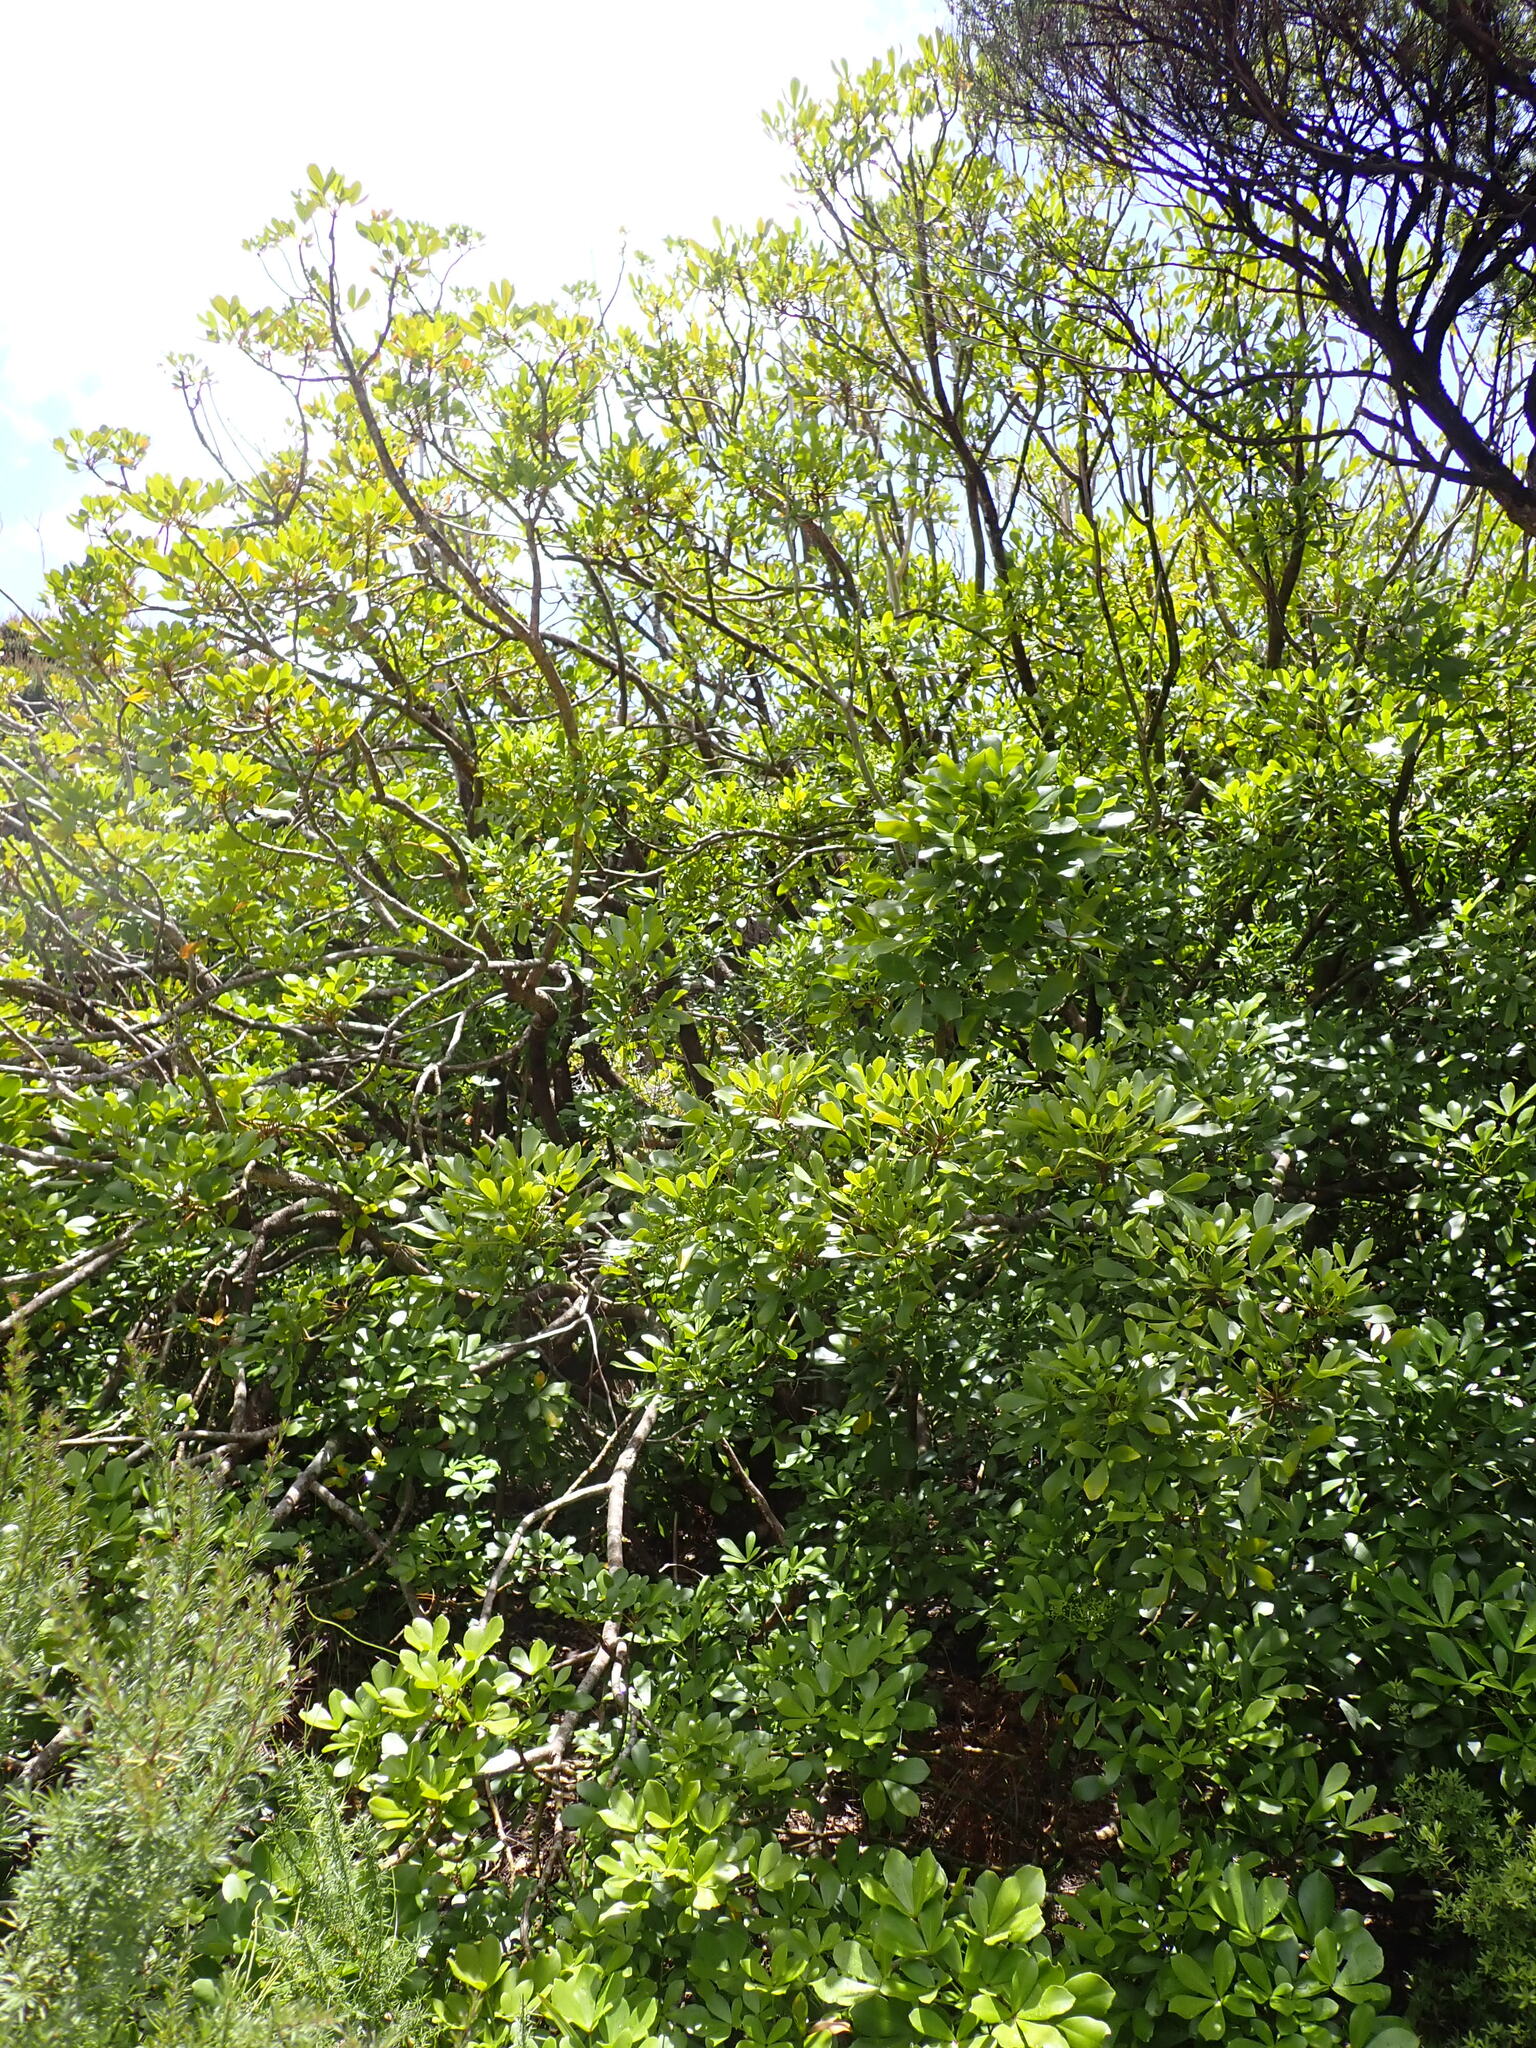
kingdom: Plantae
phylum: Tracheophyta
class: Magnoliopsida
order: Apiales
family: Araliaceae
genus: Pseudopanax
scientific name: Pseudopanax lessonii
